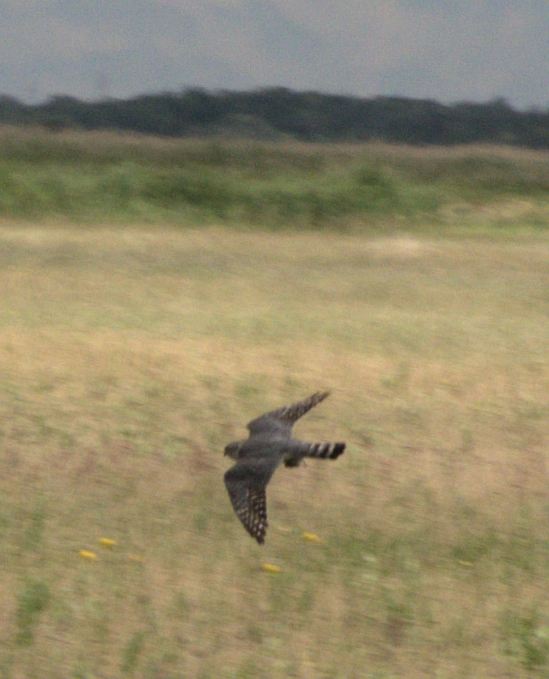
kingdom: Animalia
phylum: Chordata
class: Aves
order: Falconiformes
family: Falconidae
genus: Falco
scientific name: Falco columbarius
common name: Merlin
